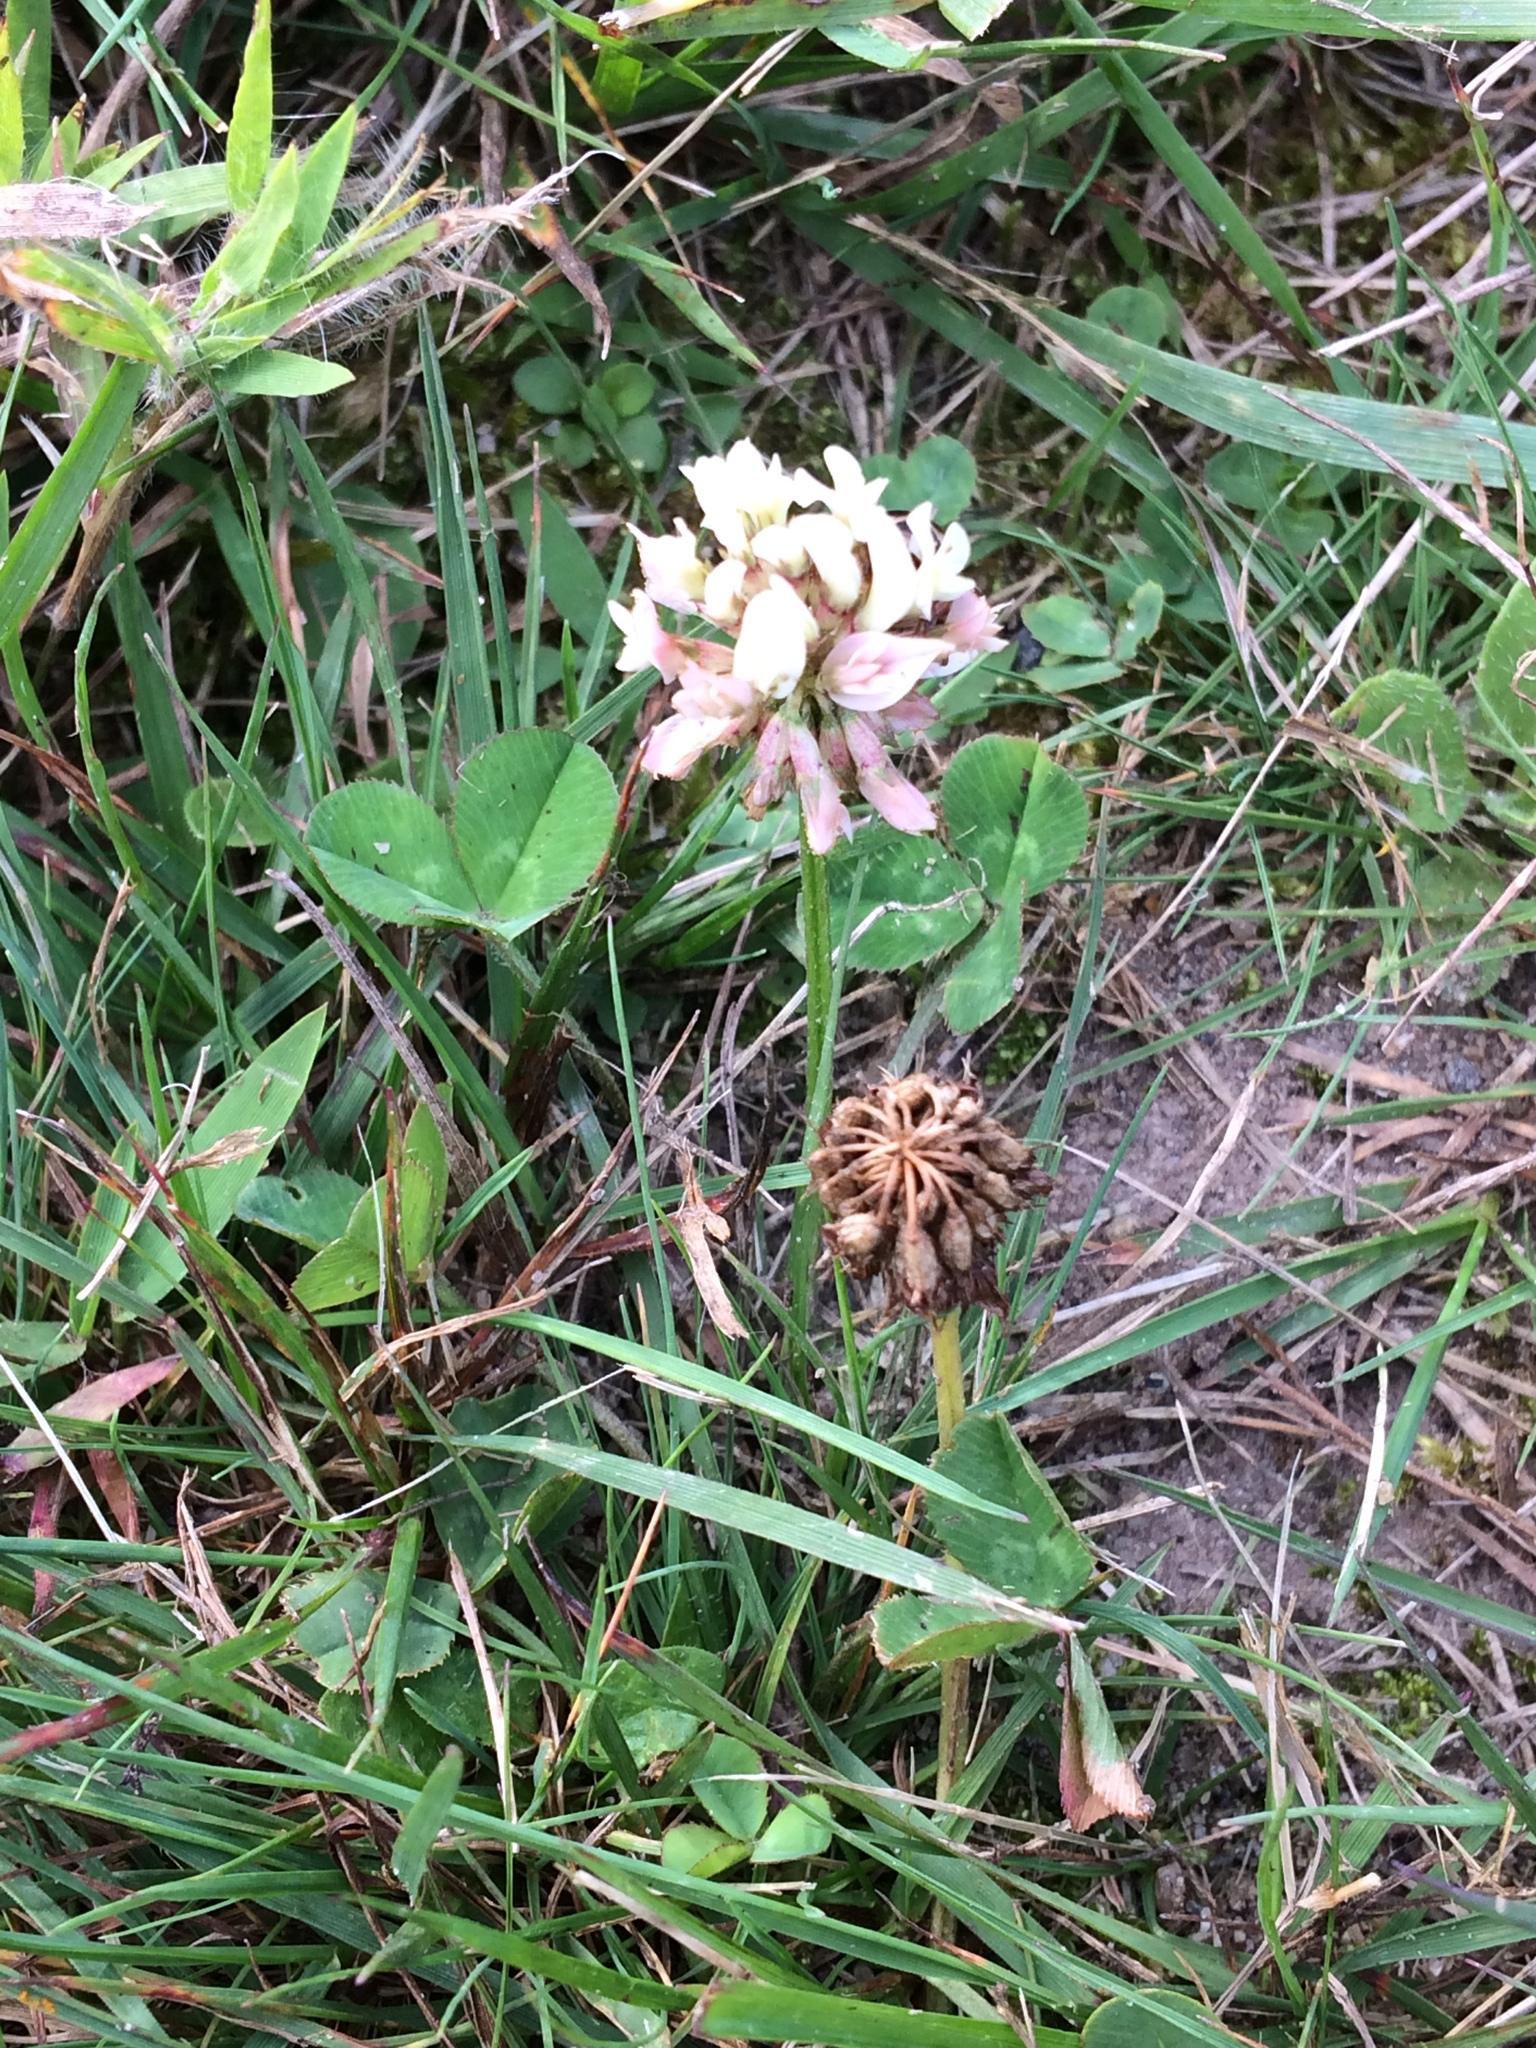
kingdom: Plantae
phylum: Tracheophyta
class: Magnoliopsida
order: Fabales
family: Fabaceae
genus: Trifolium
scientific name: Trifolium repens
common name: White clover
